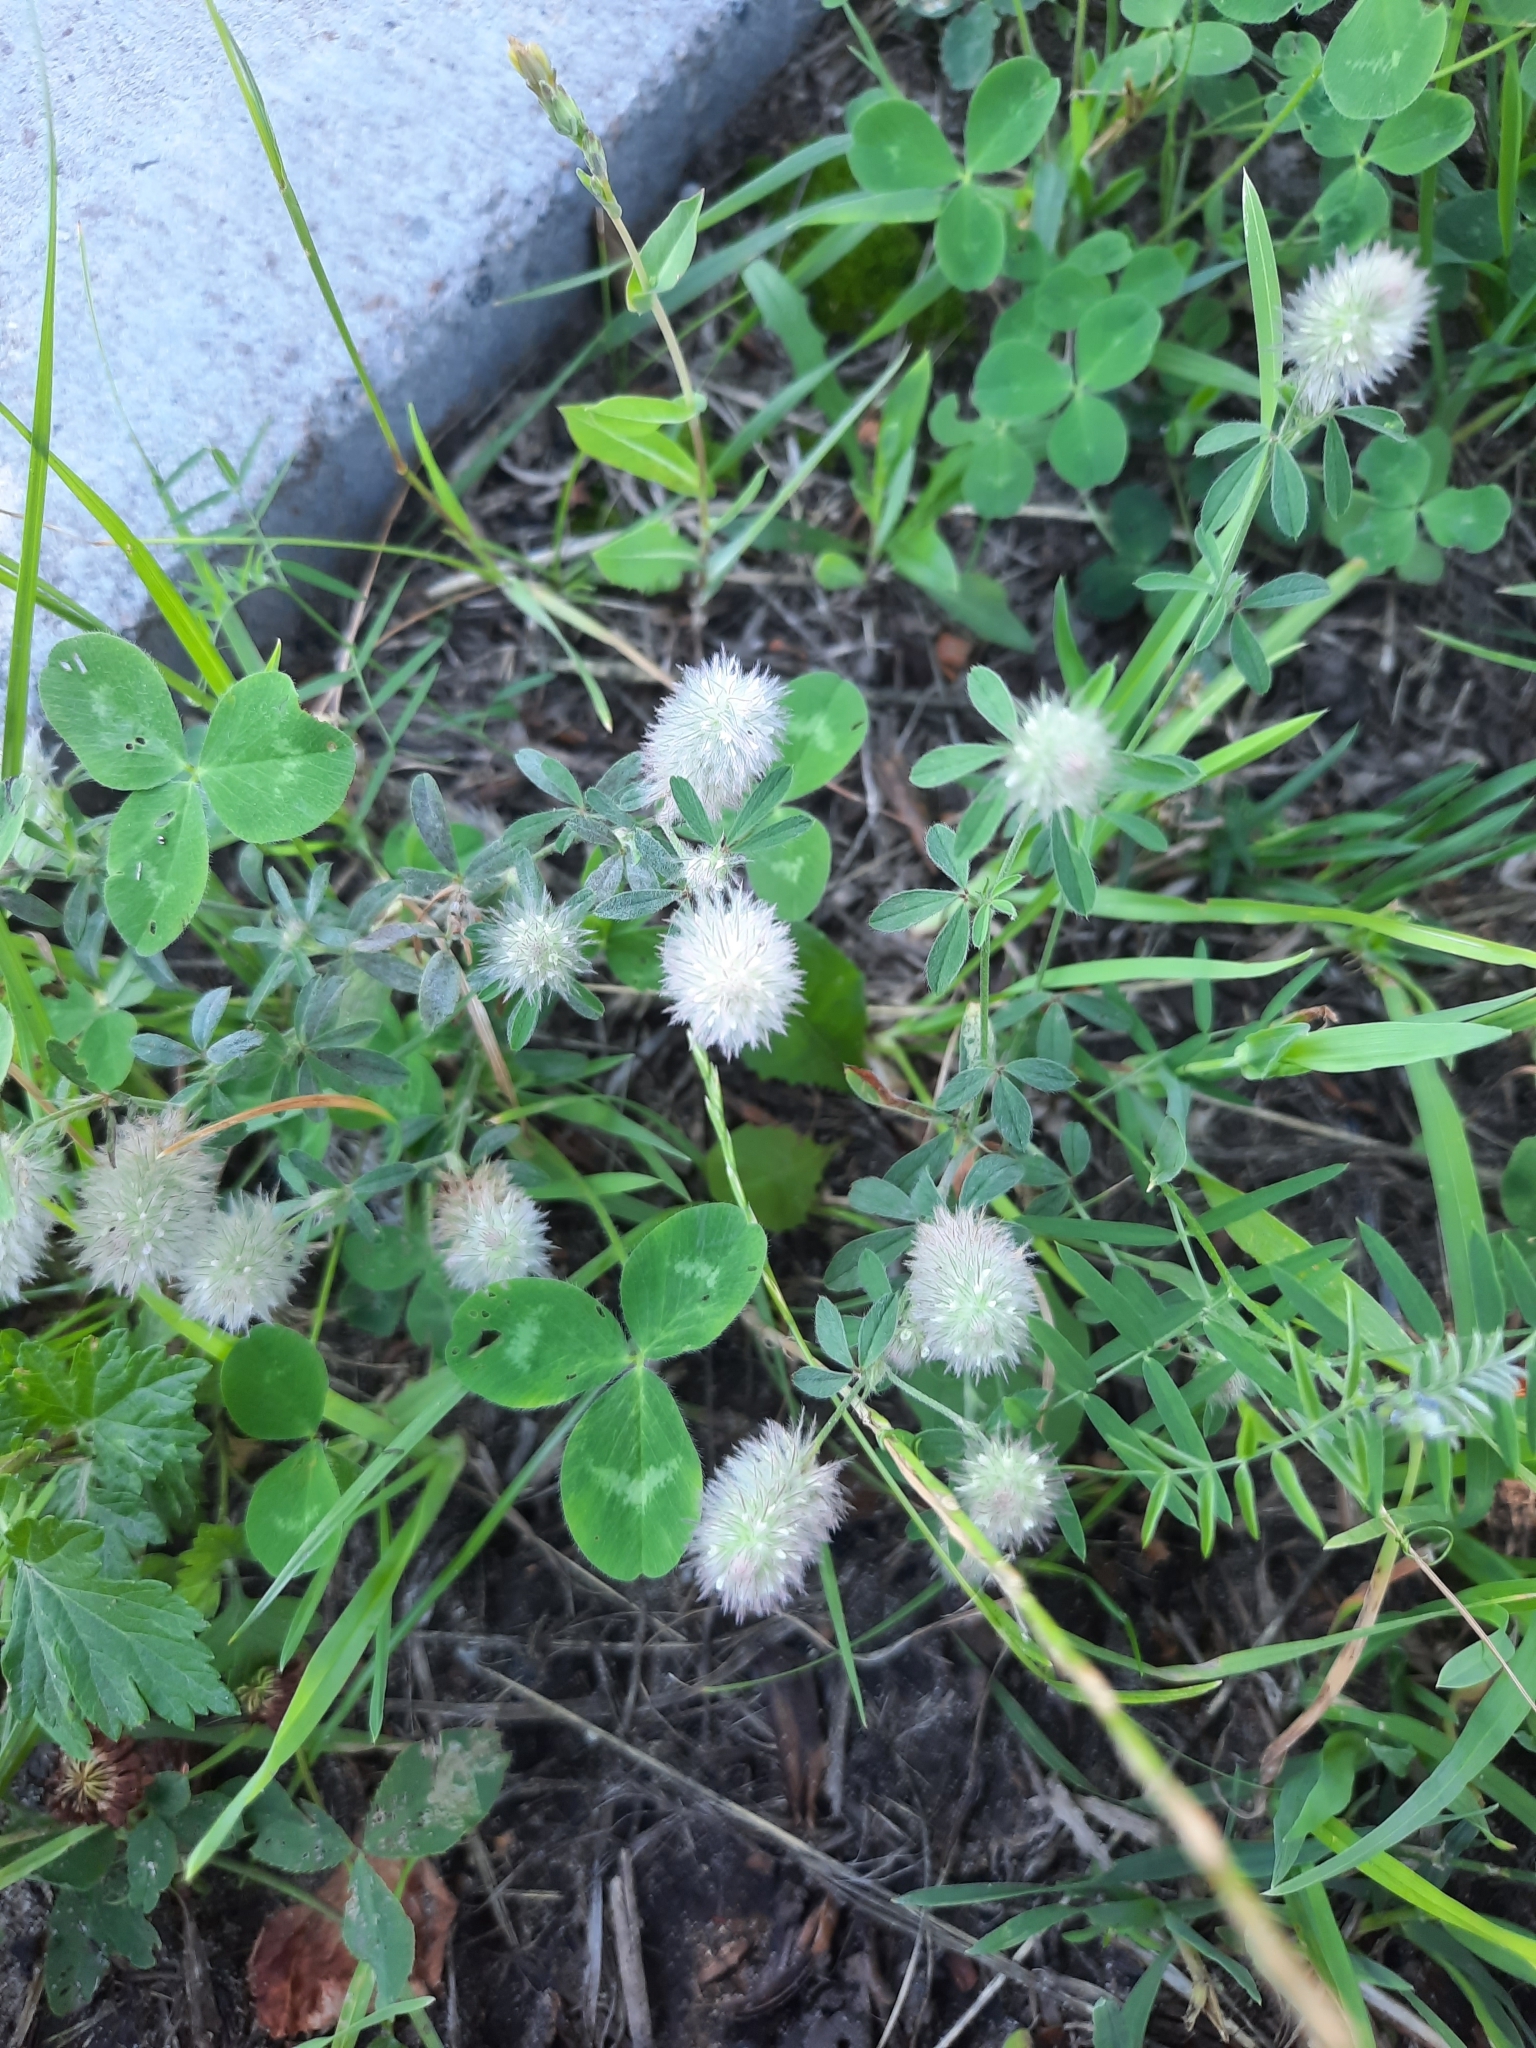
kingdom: Plantae
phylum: Tracheophyta
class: Magnoliopsida
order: Fabales
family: Fabaceae
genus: Trifolium
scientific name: Trifolium arvense
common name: Hare's-foot clover
